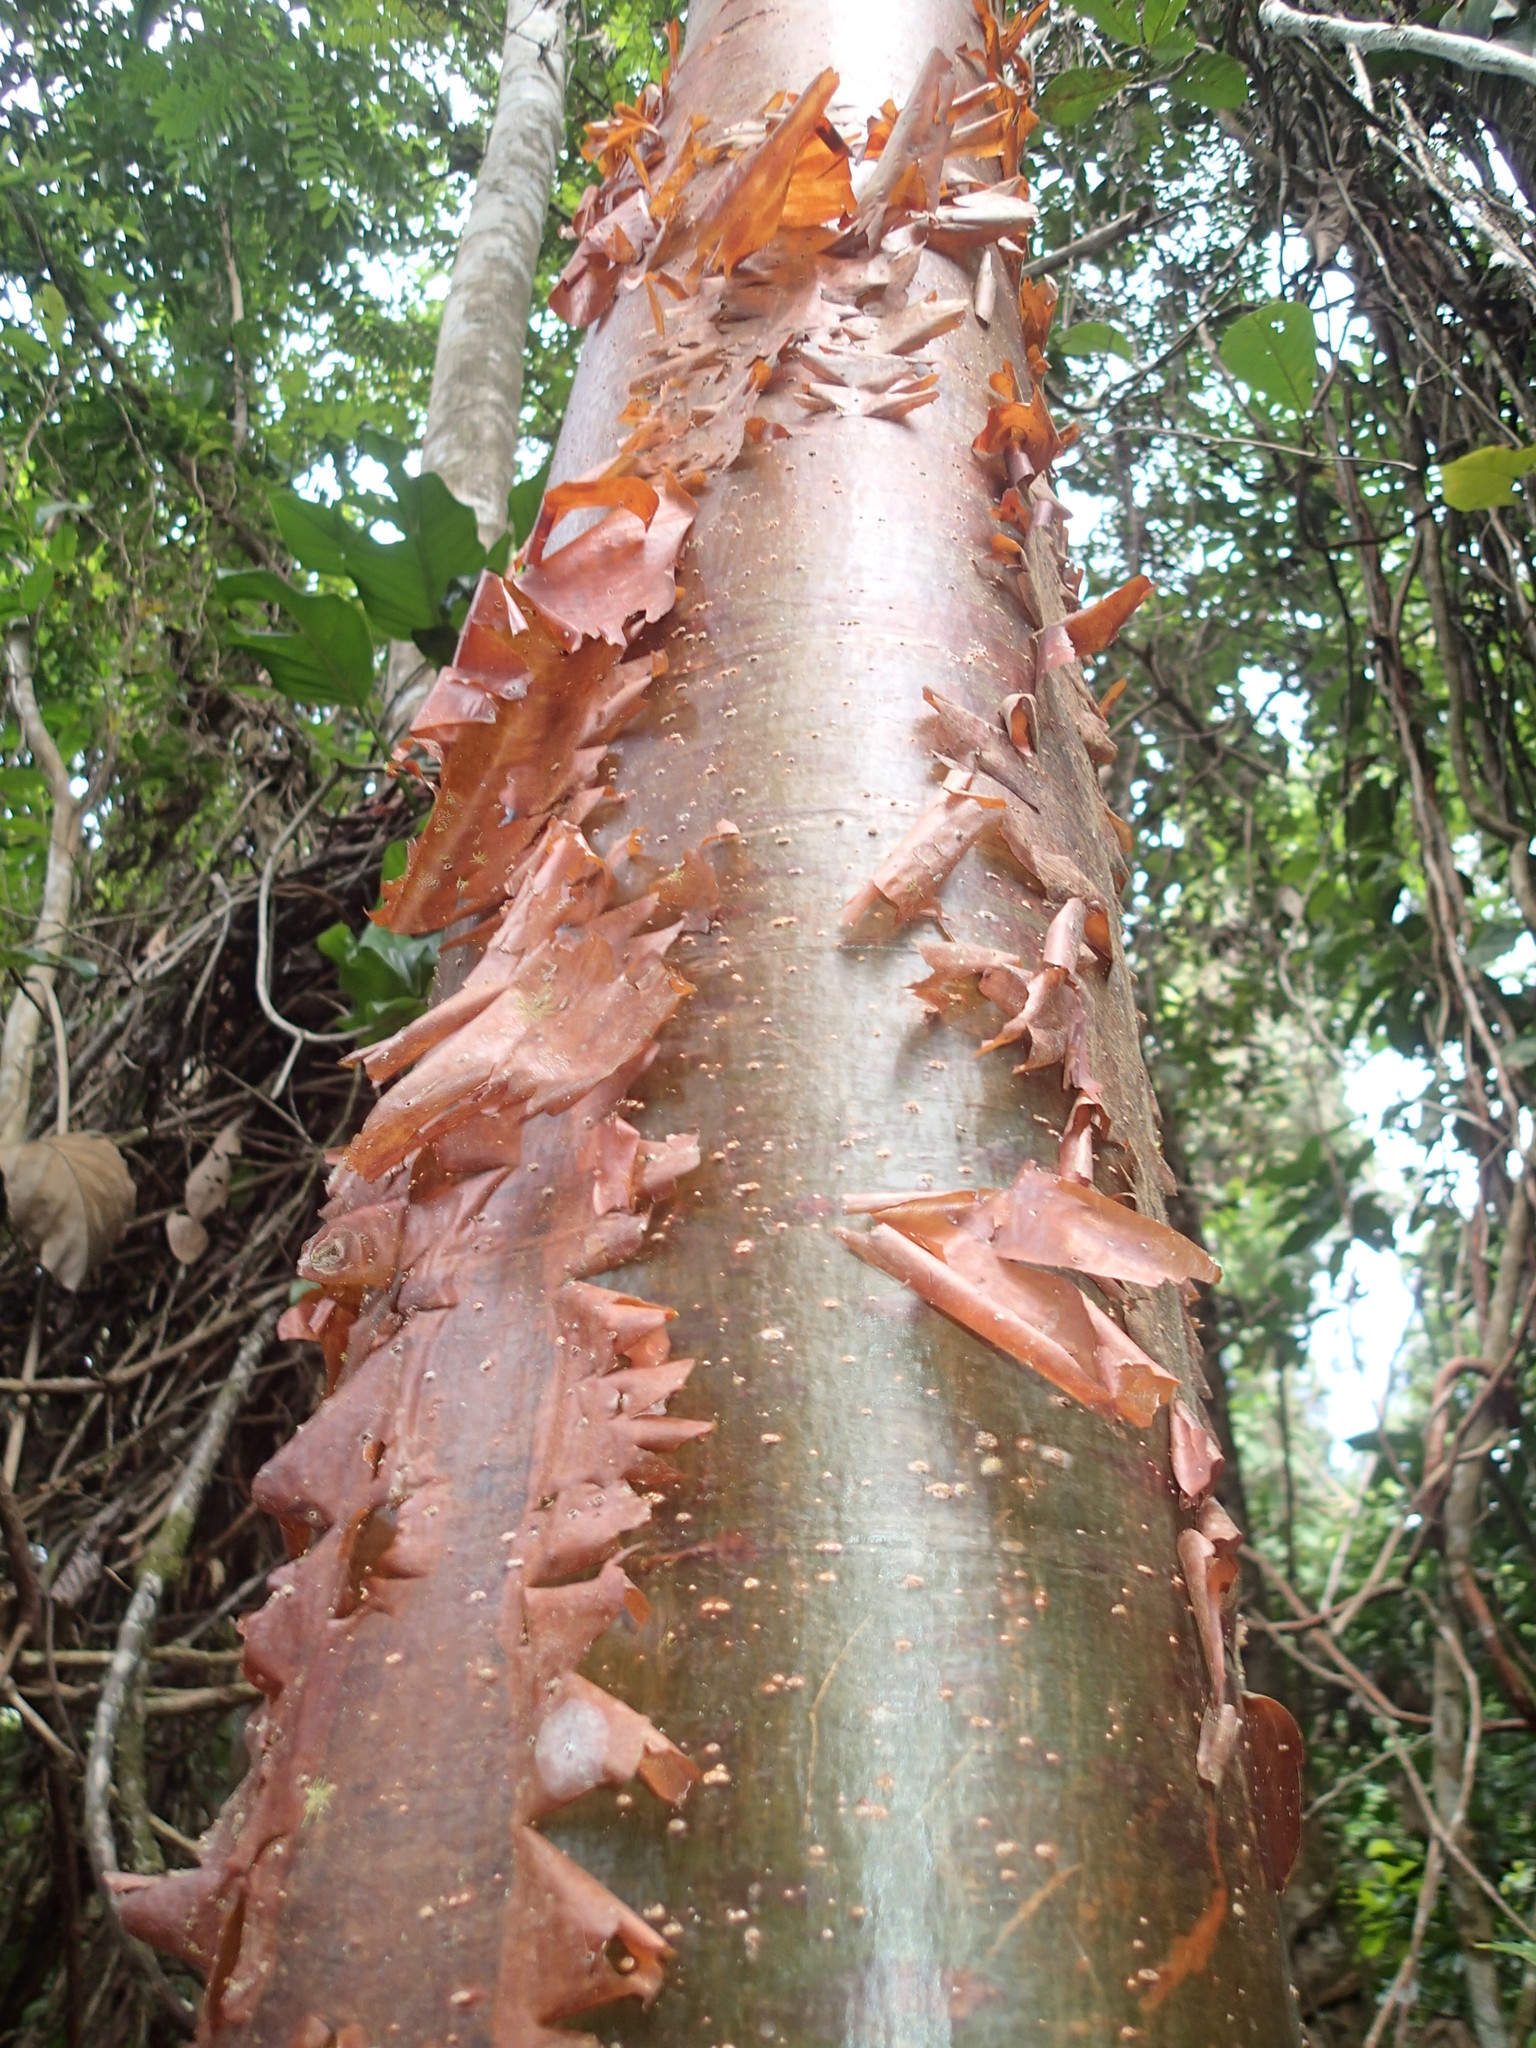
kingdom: Plantae
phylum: Tracheophyta
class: Magnoliopsida
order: Sapindales
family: Burseraceae
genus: Bursera
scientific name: Bursera simaruba
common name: Turpentine tree
